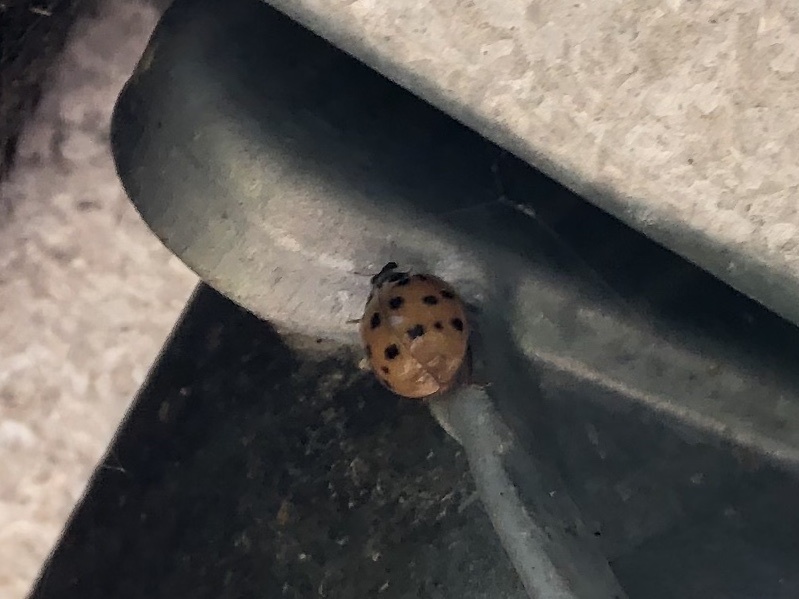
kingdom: Animalia
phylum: Arthropoda
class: Insecta
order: Coleoptera
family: Coccinellidae
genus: Harmonia
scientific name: Harmonia axyridis
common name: Harlequin ladybird
